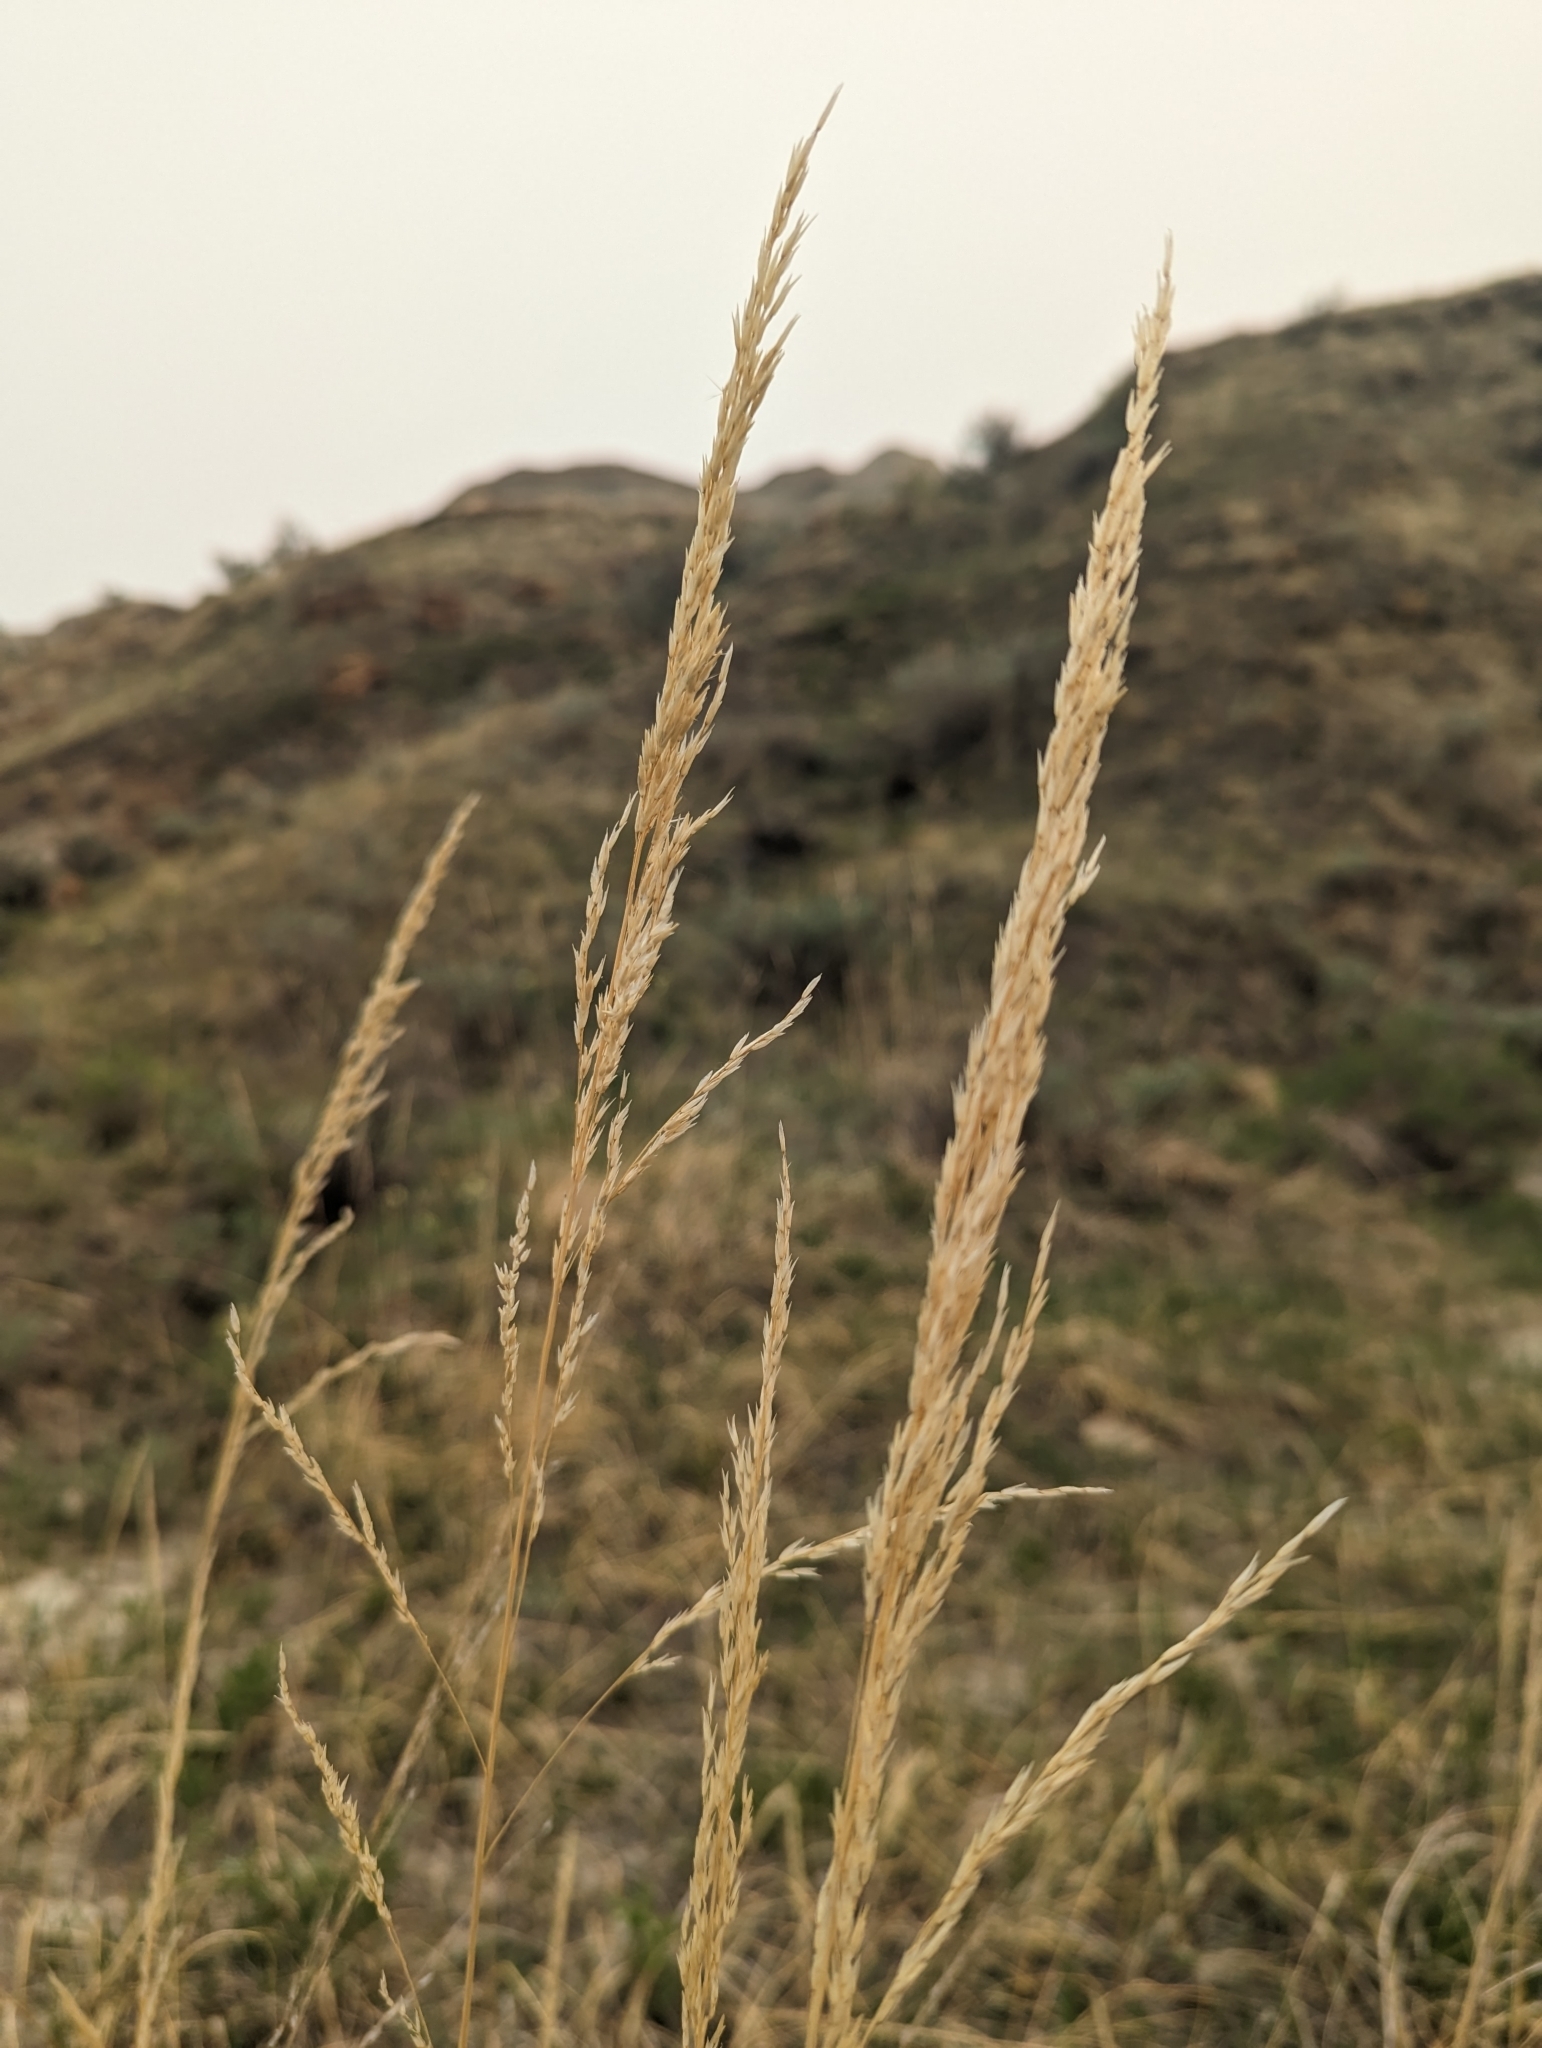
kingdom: Plantae
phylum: Tracheophyta
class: Liliopsida
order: Poales
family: Poaceae
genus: Sporobolus
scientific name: Sporobolus rigidus
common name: Prairie sandreed
